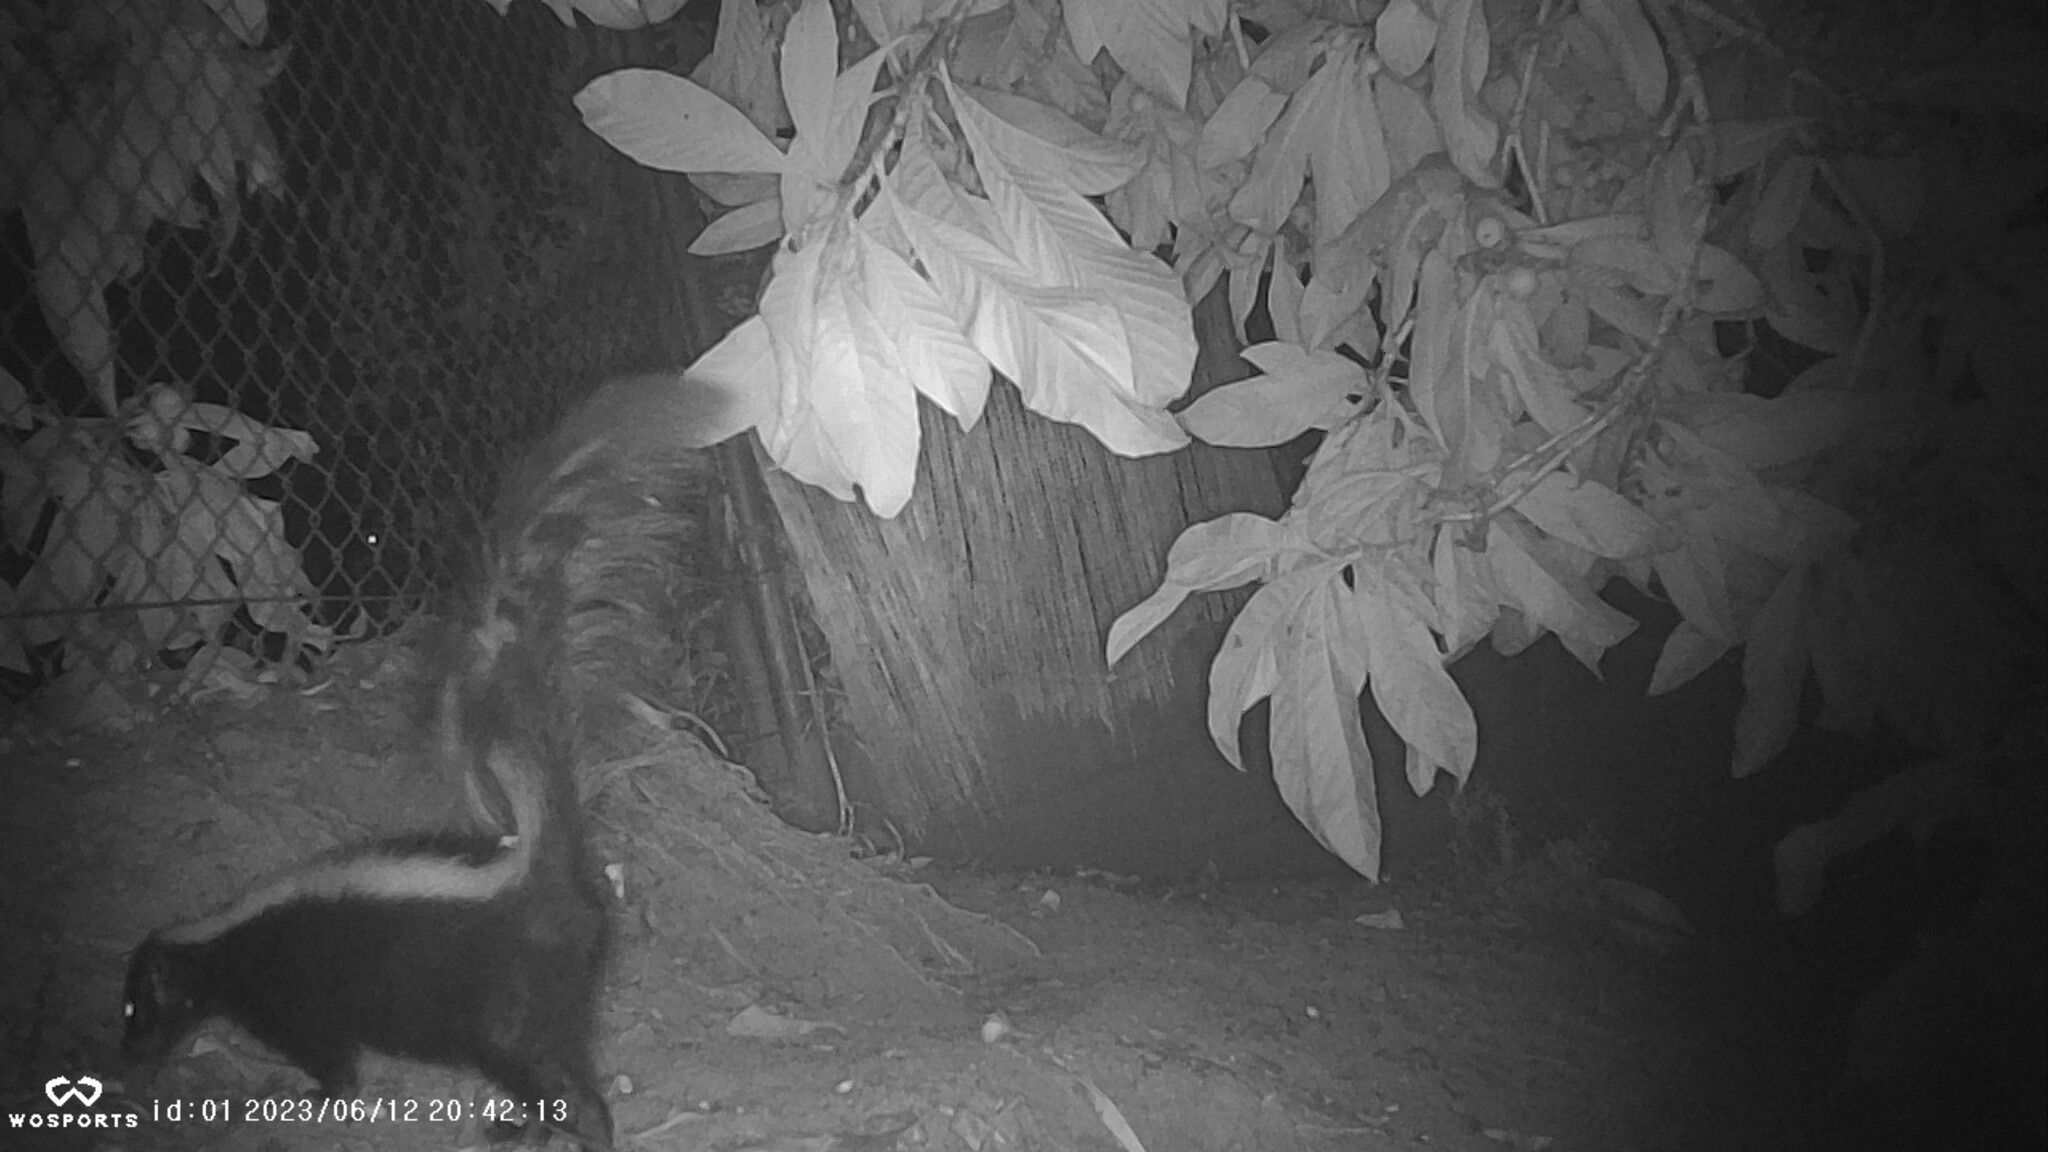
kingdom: Animalia
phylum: Chordata
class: Mammalia
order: Carnivora
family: Mephitidae
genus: Mephitis
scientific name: Mephitis mephitis
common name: Striped skunk
